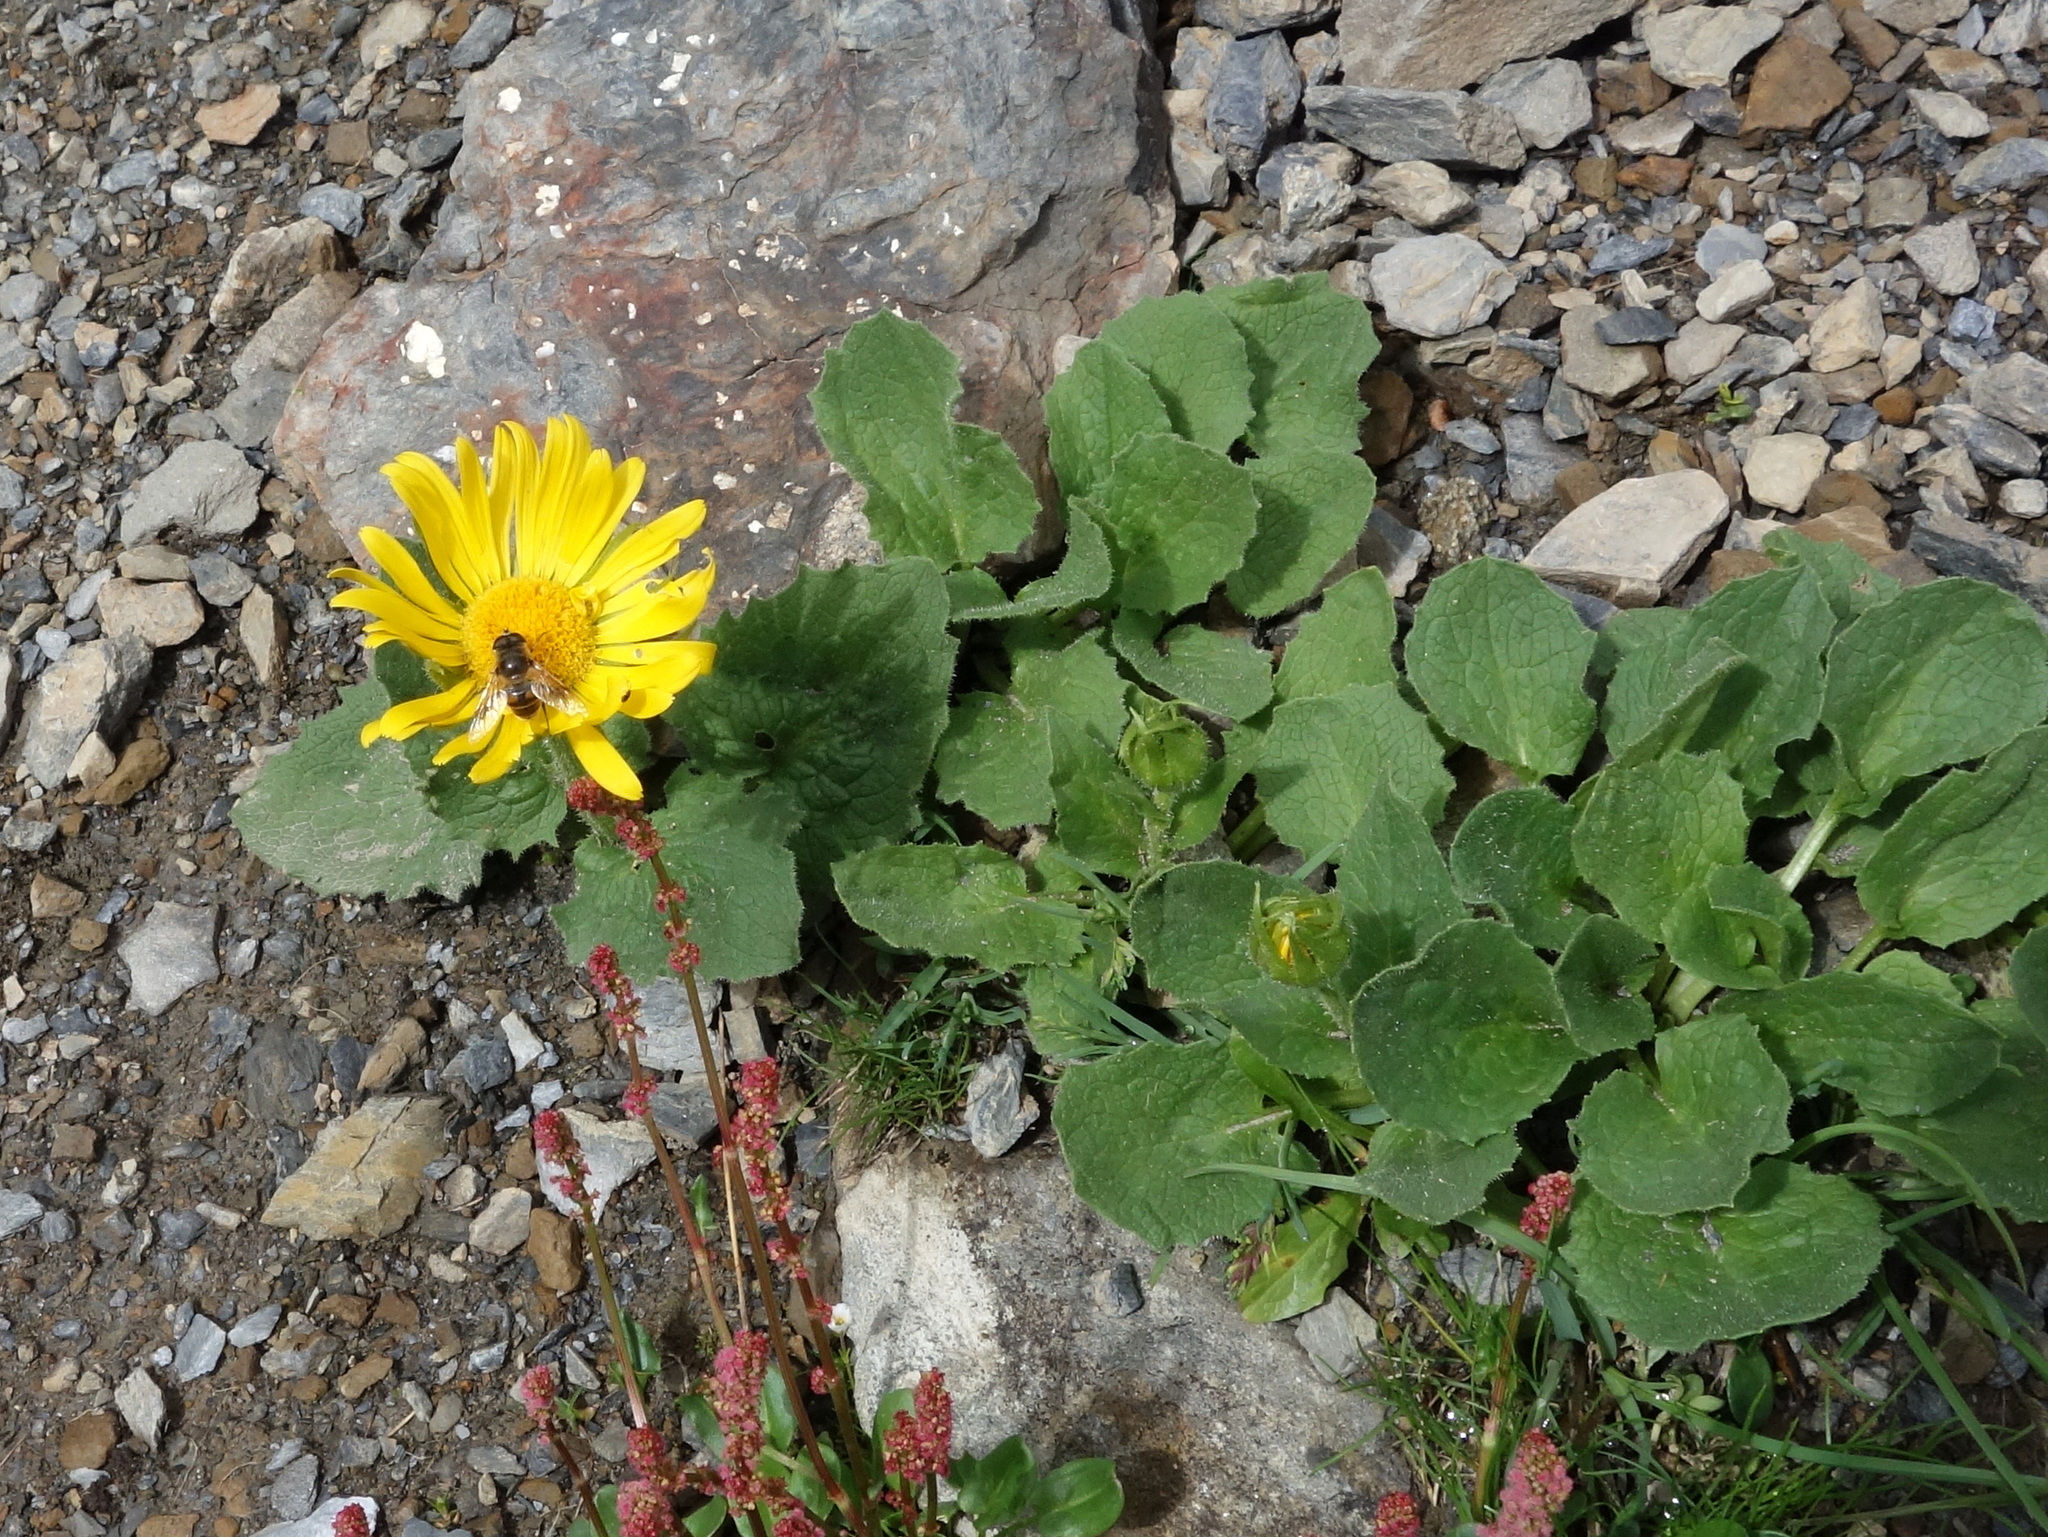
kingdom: Plantae
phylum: Tracheophyta
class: Magnoliopsida
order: Asterales
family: Asteraceae
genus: Doronicum
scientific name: Doronicum grandiflorum
